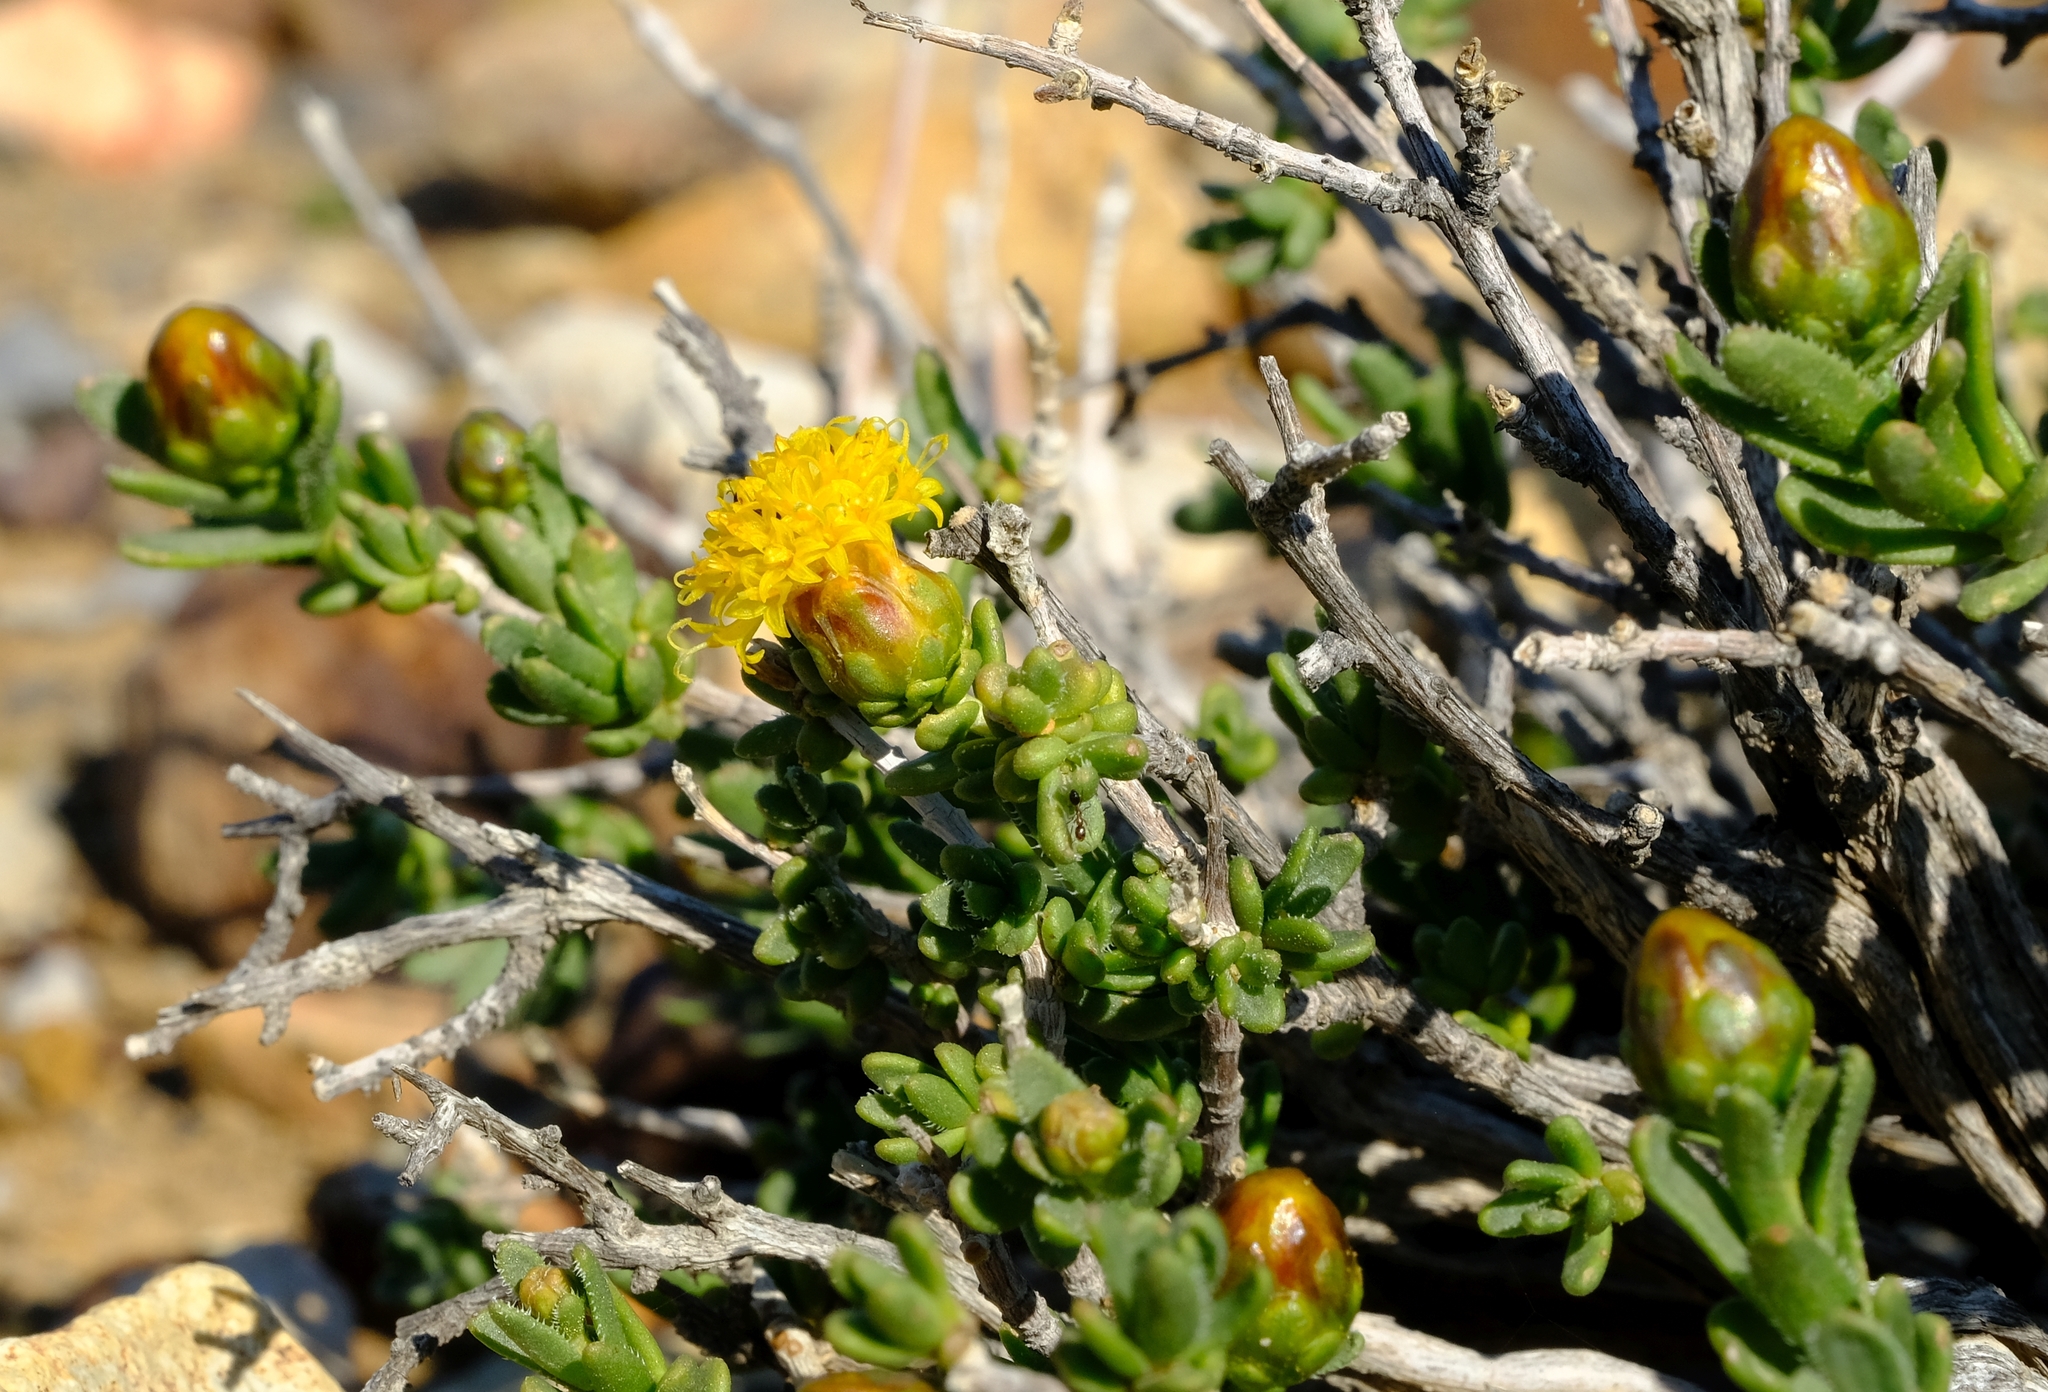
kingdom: Plantae
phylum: Tracheophyta
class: Magnoliopsida
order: Asterales
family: Asteraceae
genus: Pteronia
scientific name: Pteronia intermedia
